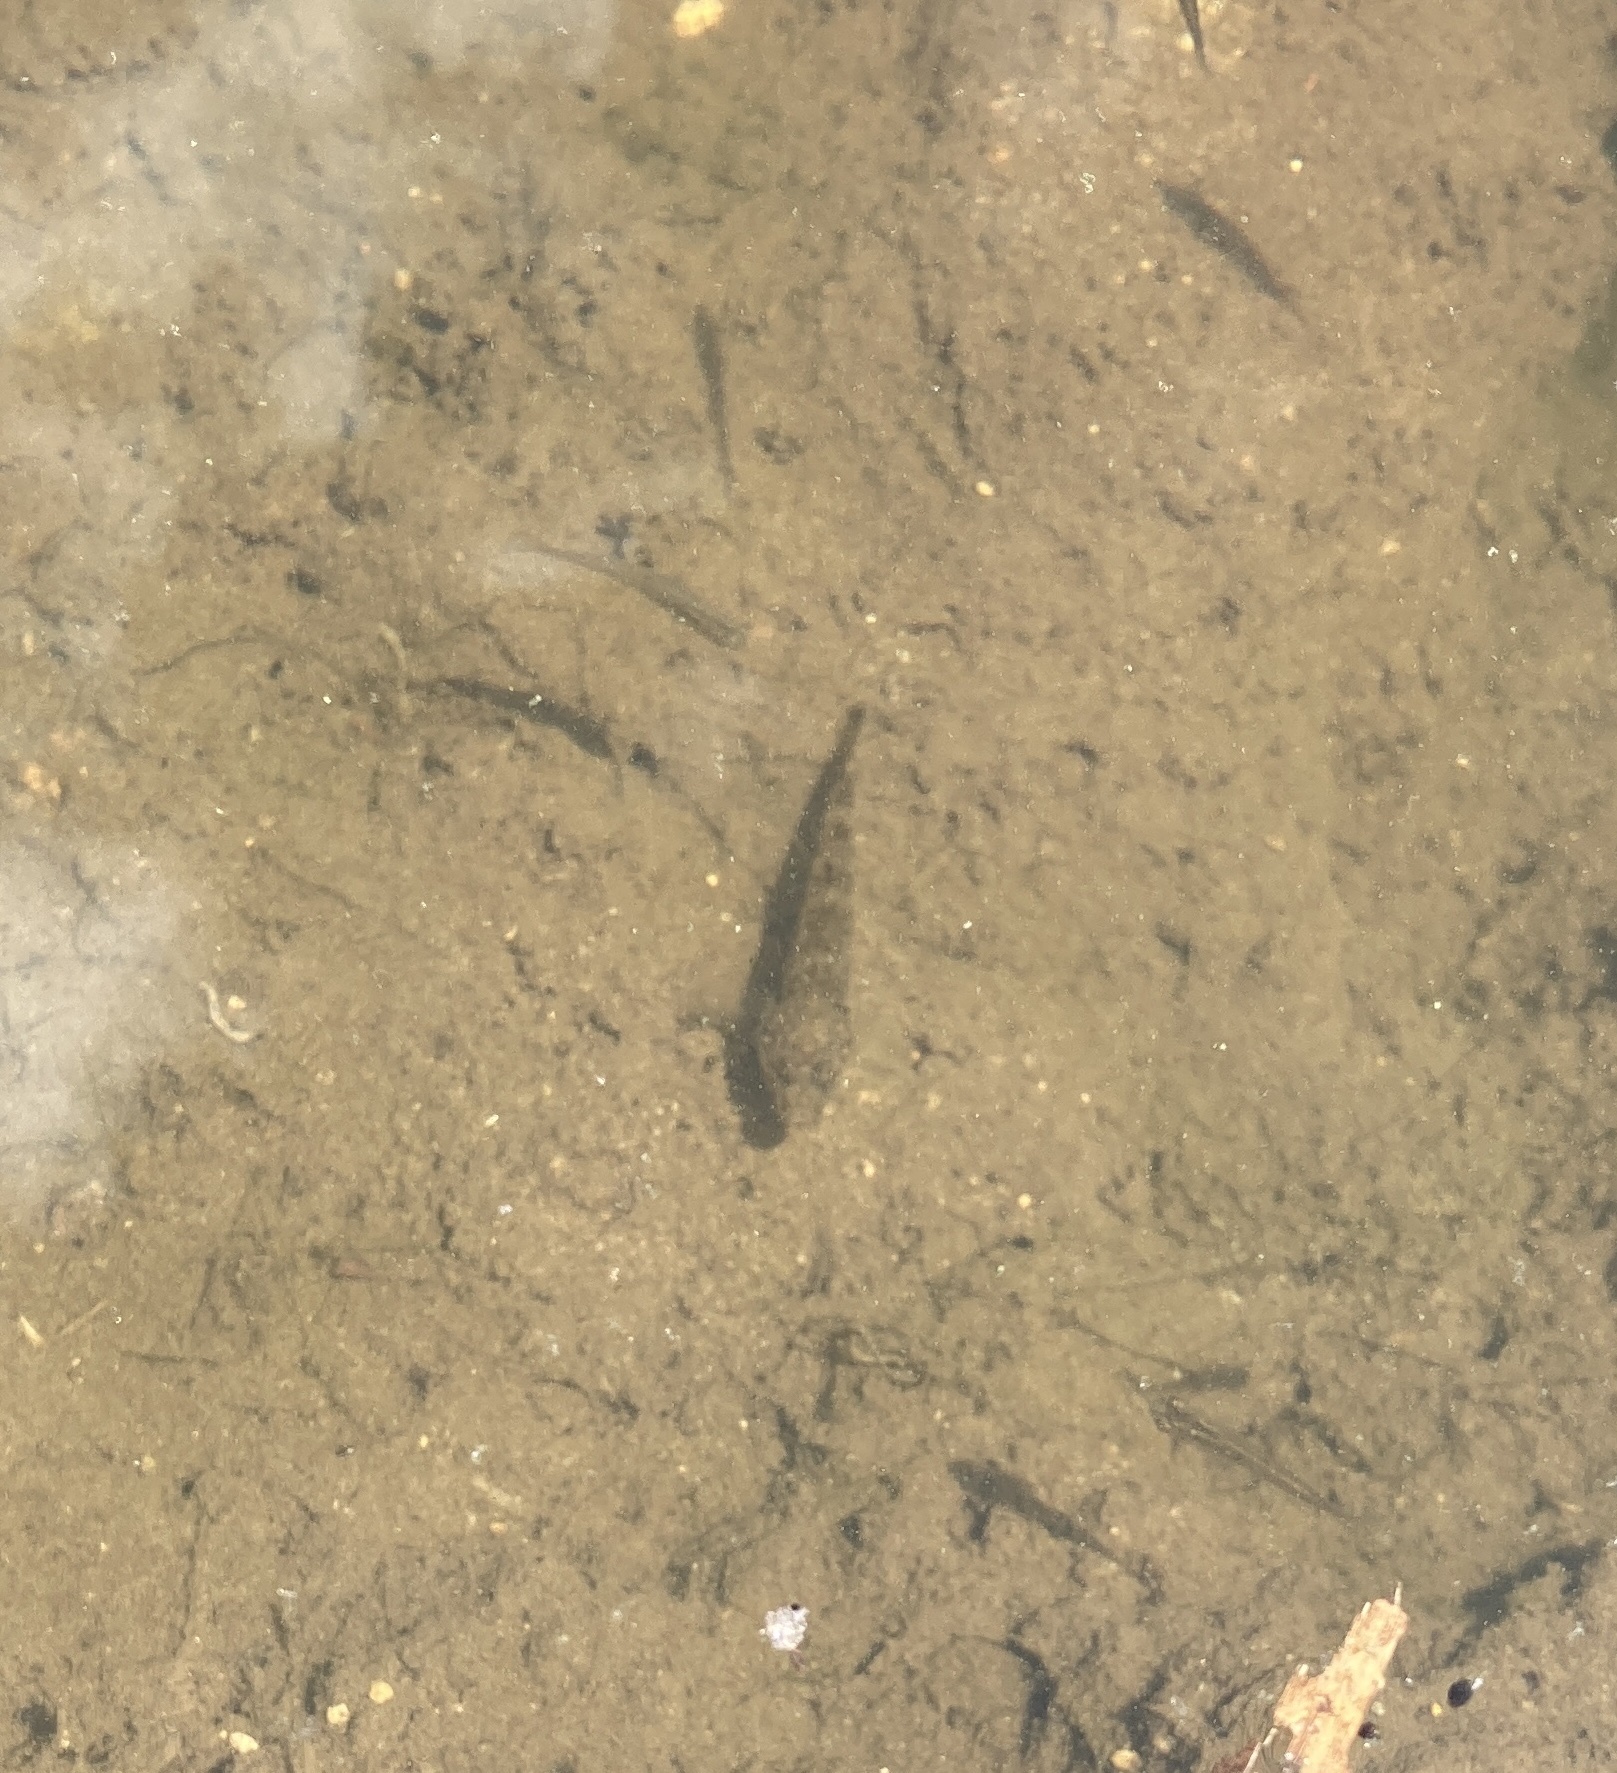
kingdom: Animalia
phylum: Chordata
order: Perciformes
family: Eleotridae
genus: Gobiomorphus
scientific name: Gobiomorphus cotidianus
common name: Common bully
